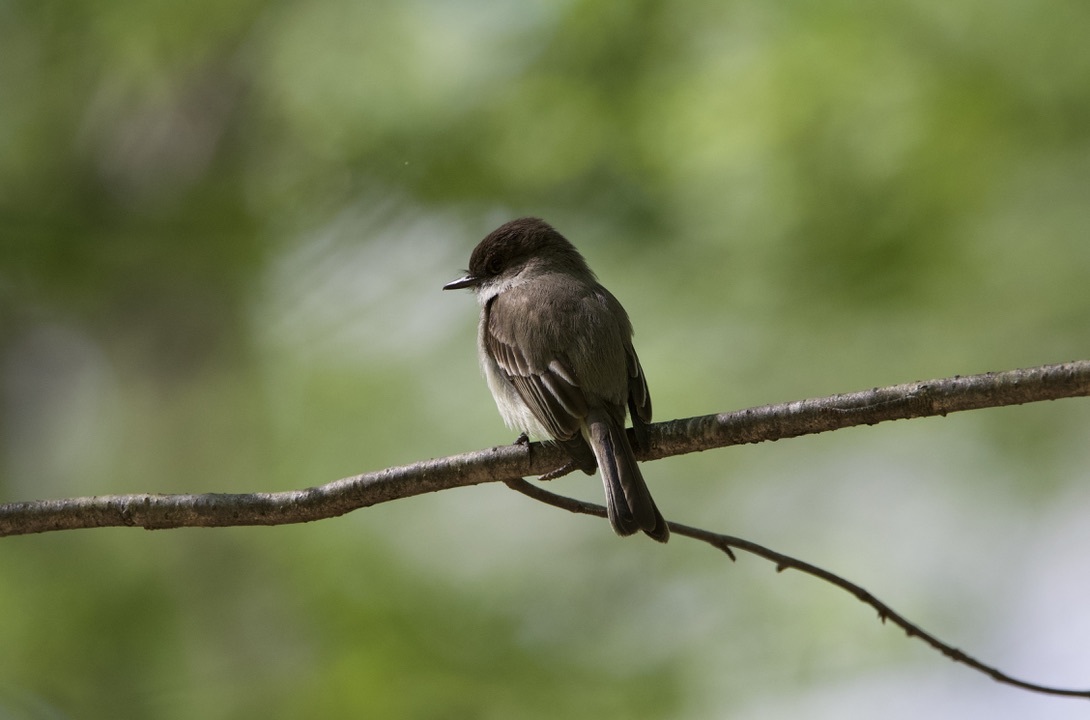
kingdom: Animalia
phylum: Chordata
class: Aves
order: Passeriformes
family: Tyrannidae
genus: Sayornis
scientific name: Sayornis phoebe
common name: Eastern phoebe
